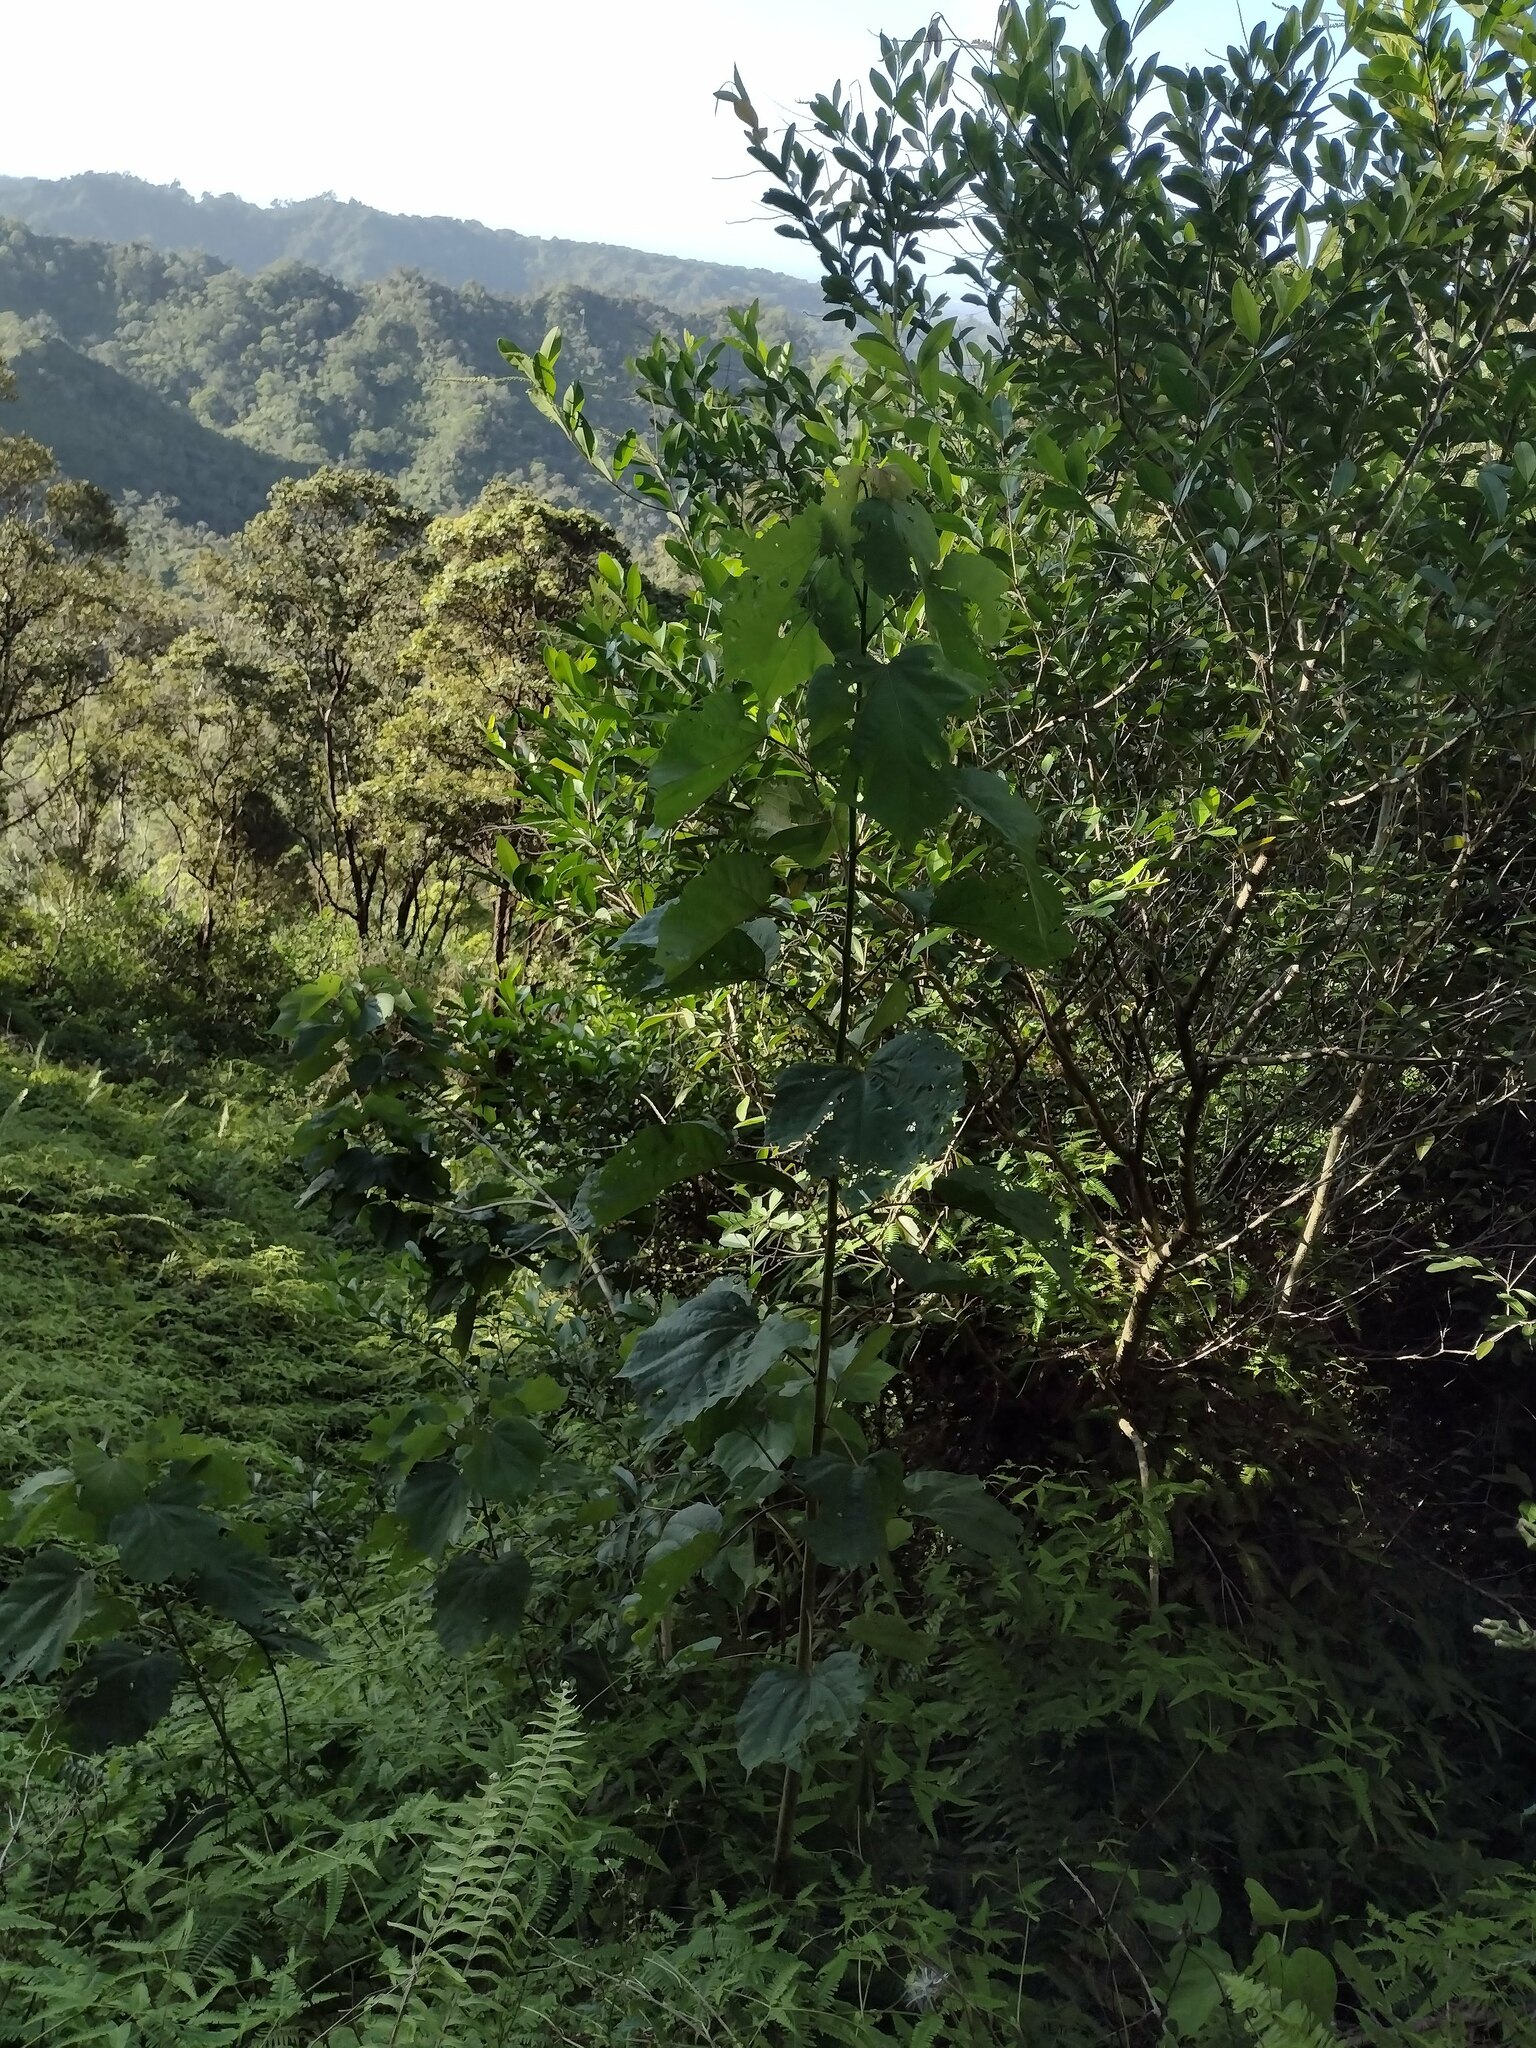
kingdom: Plantae
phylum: Tracheophyta
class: Magnoliopsida
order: Malvales
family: Malvaceae
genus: Heliocarpus
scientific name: Heliocarpus americanus
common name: White moho
